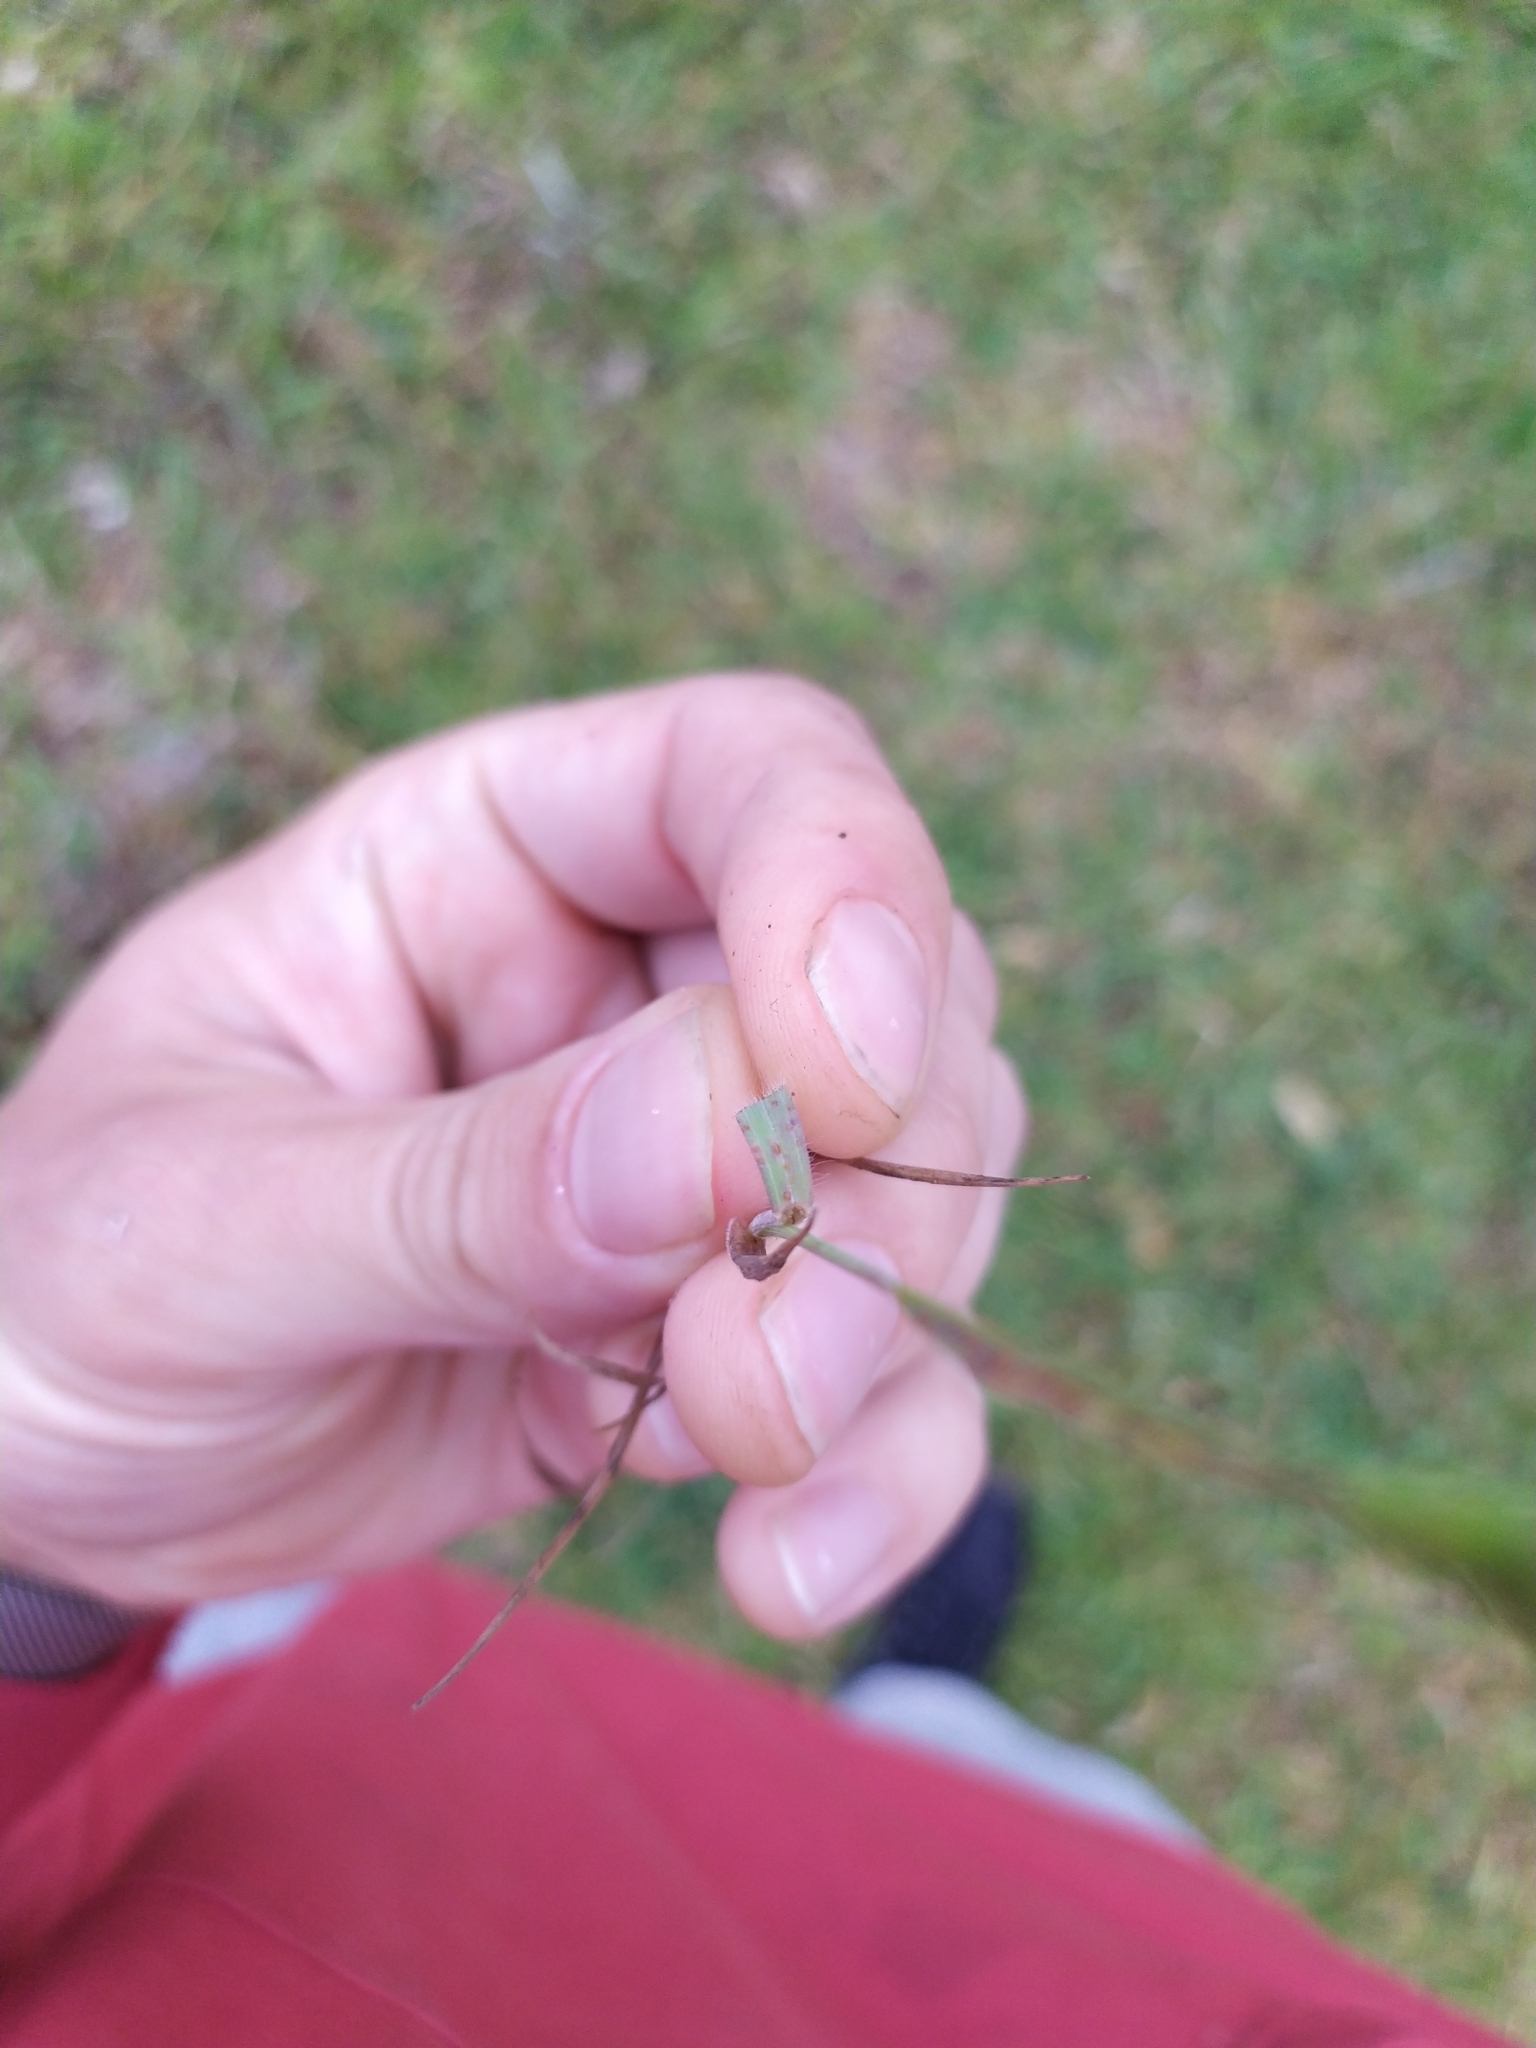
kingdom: Plantae
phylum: Tracheophyta
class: Liliopsida
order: Poales
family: Poaceae
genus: Bromus
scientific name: Bromus hordeaceus
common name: Soft brome
